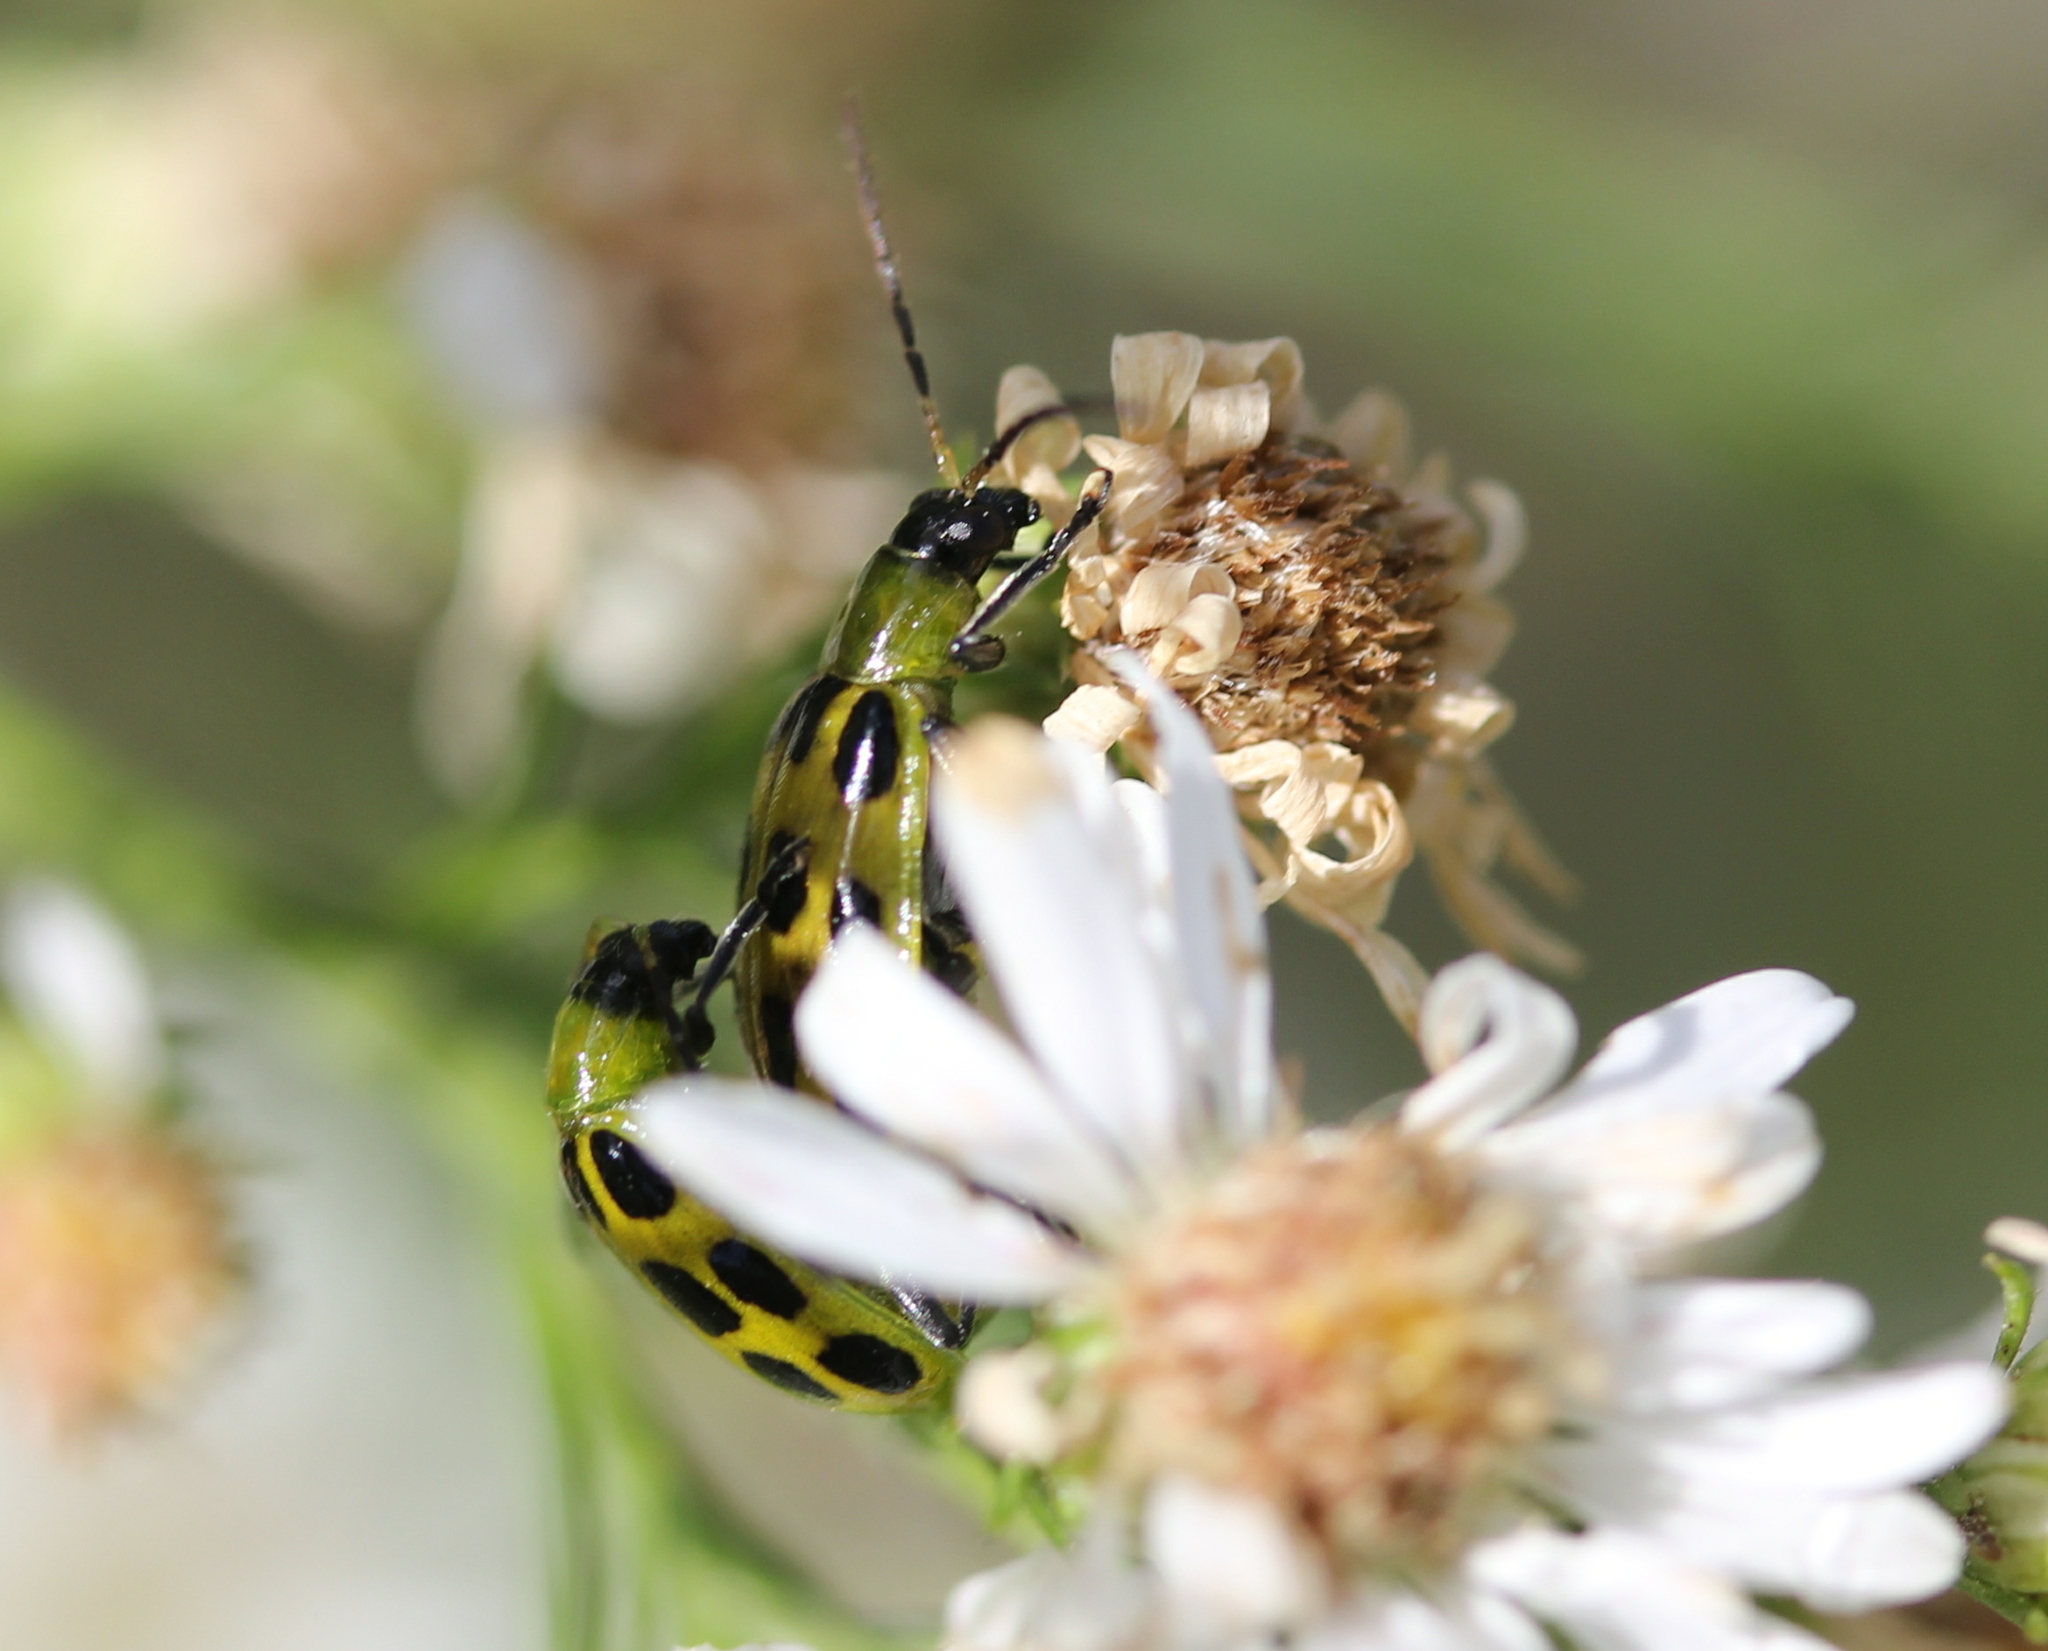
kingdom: Animalia
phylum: Arthropoda
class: Insecta
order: Coleoptera
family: Chrysomelidae
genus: Diabrotica
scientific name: Diabrotica undecimpunctata
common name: Spotted cucumber beetle
